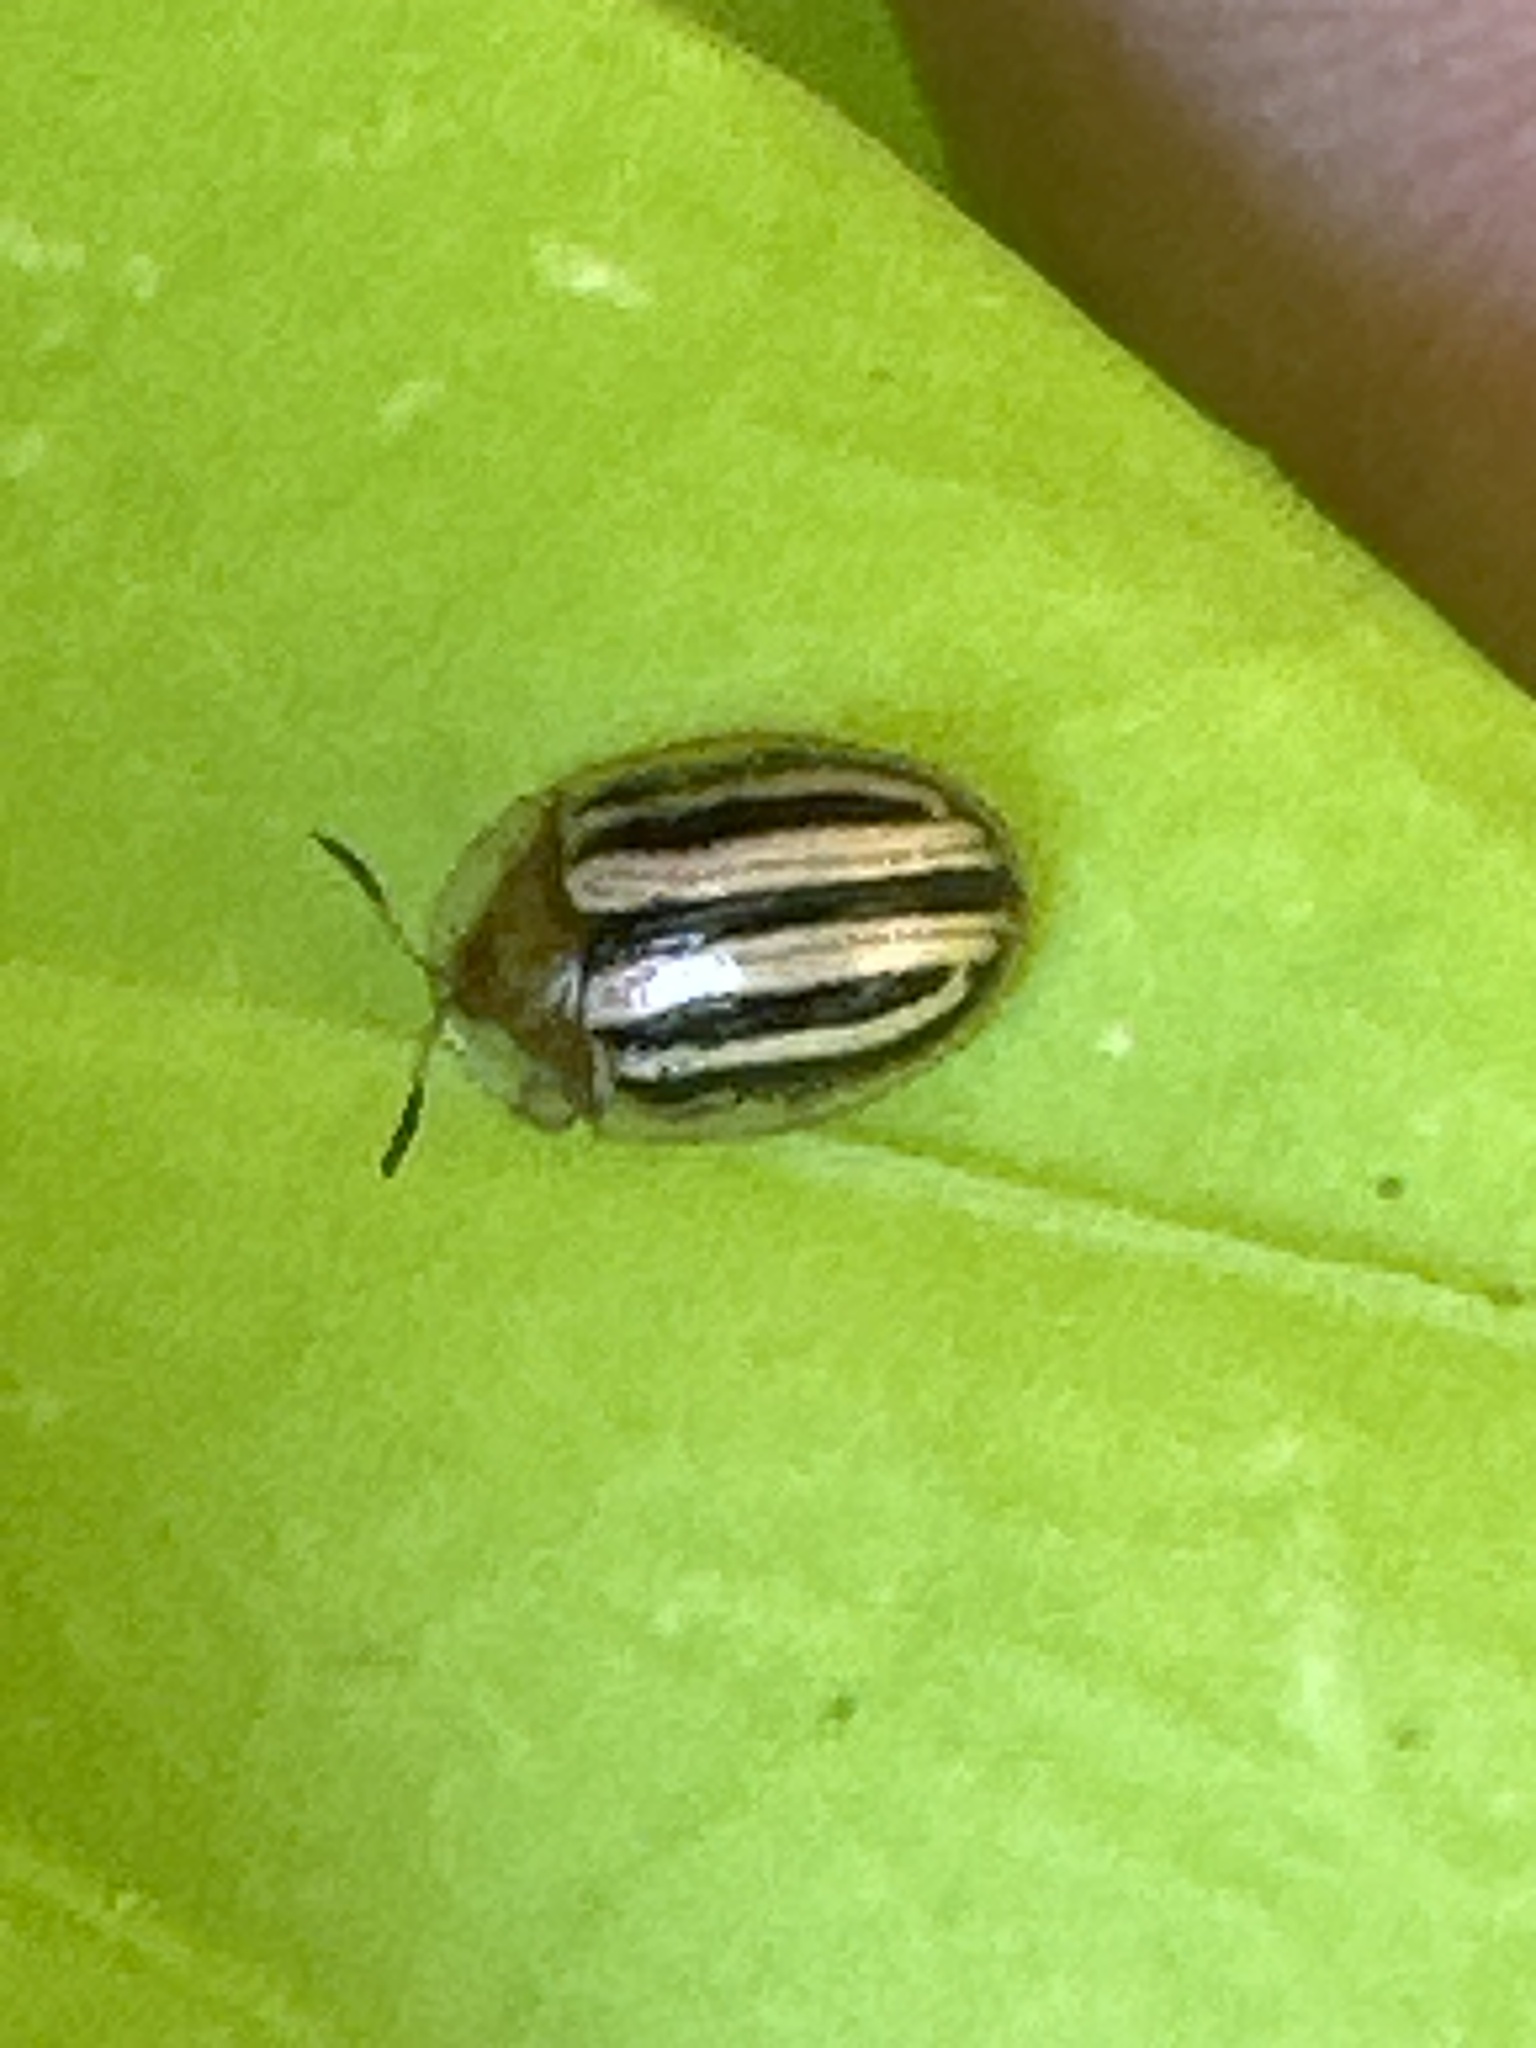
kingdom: Animalia
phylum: Arthropoda
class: Insecta
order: Coleoptera
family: Chrysomelidae
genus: Agroiconota
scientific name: Agroiconota bivittata
